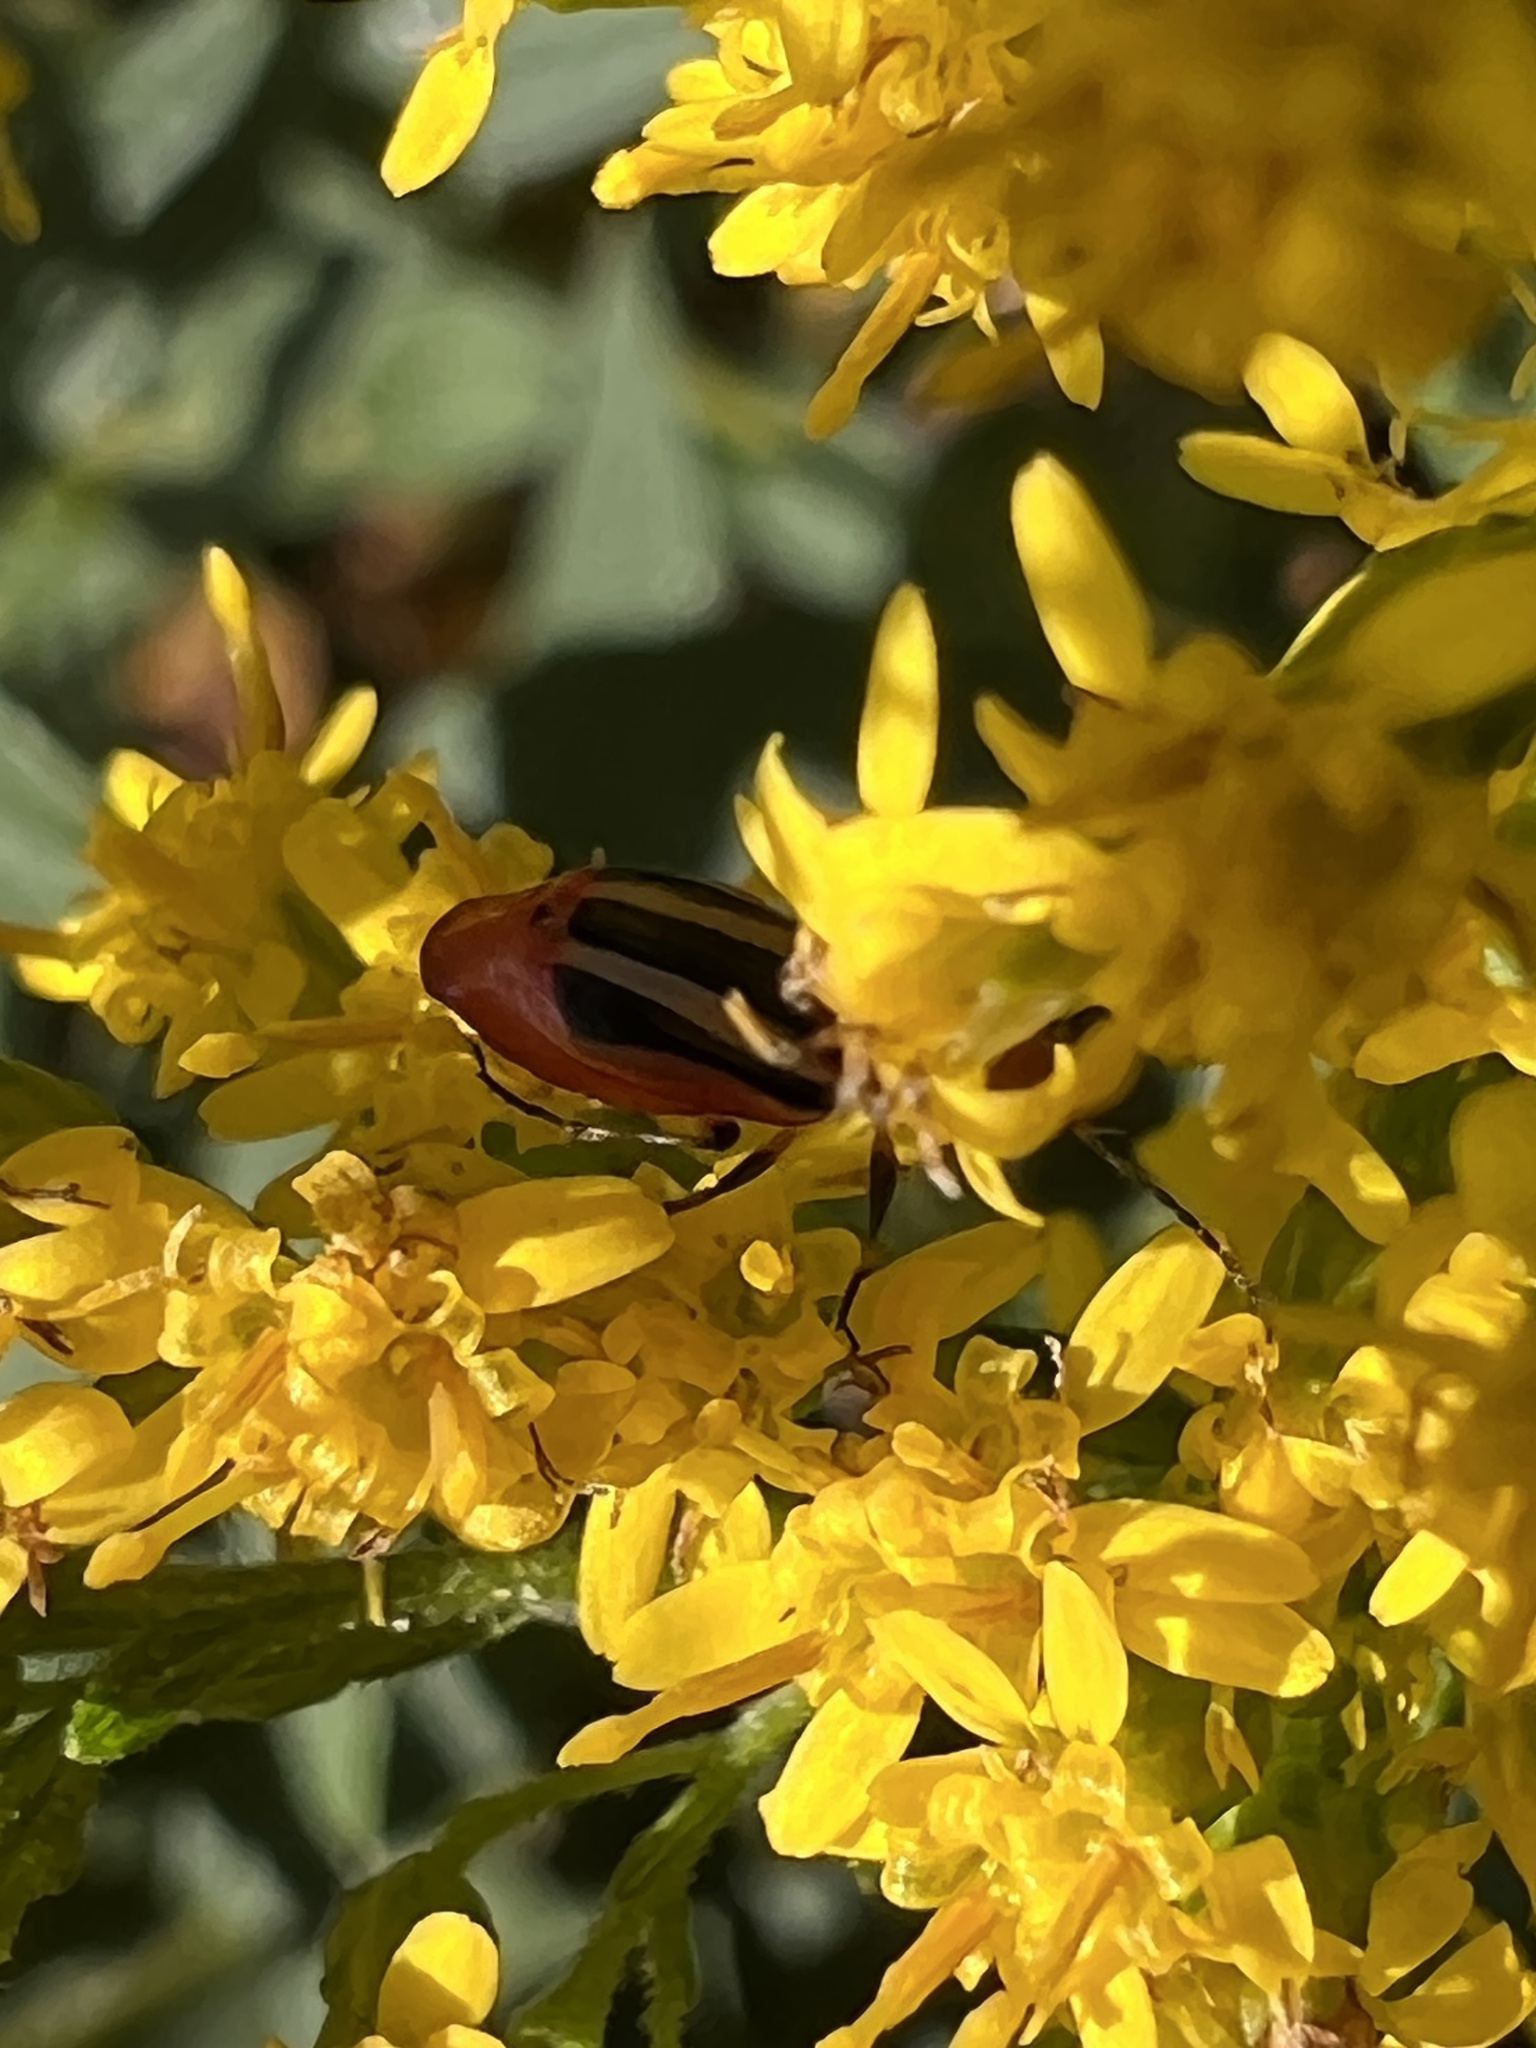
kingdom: Animalia
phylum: Arthropoda
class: Insecta
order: Coleoptera
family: Carabidae
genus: Lebia
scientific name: Lebia vittata
